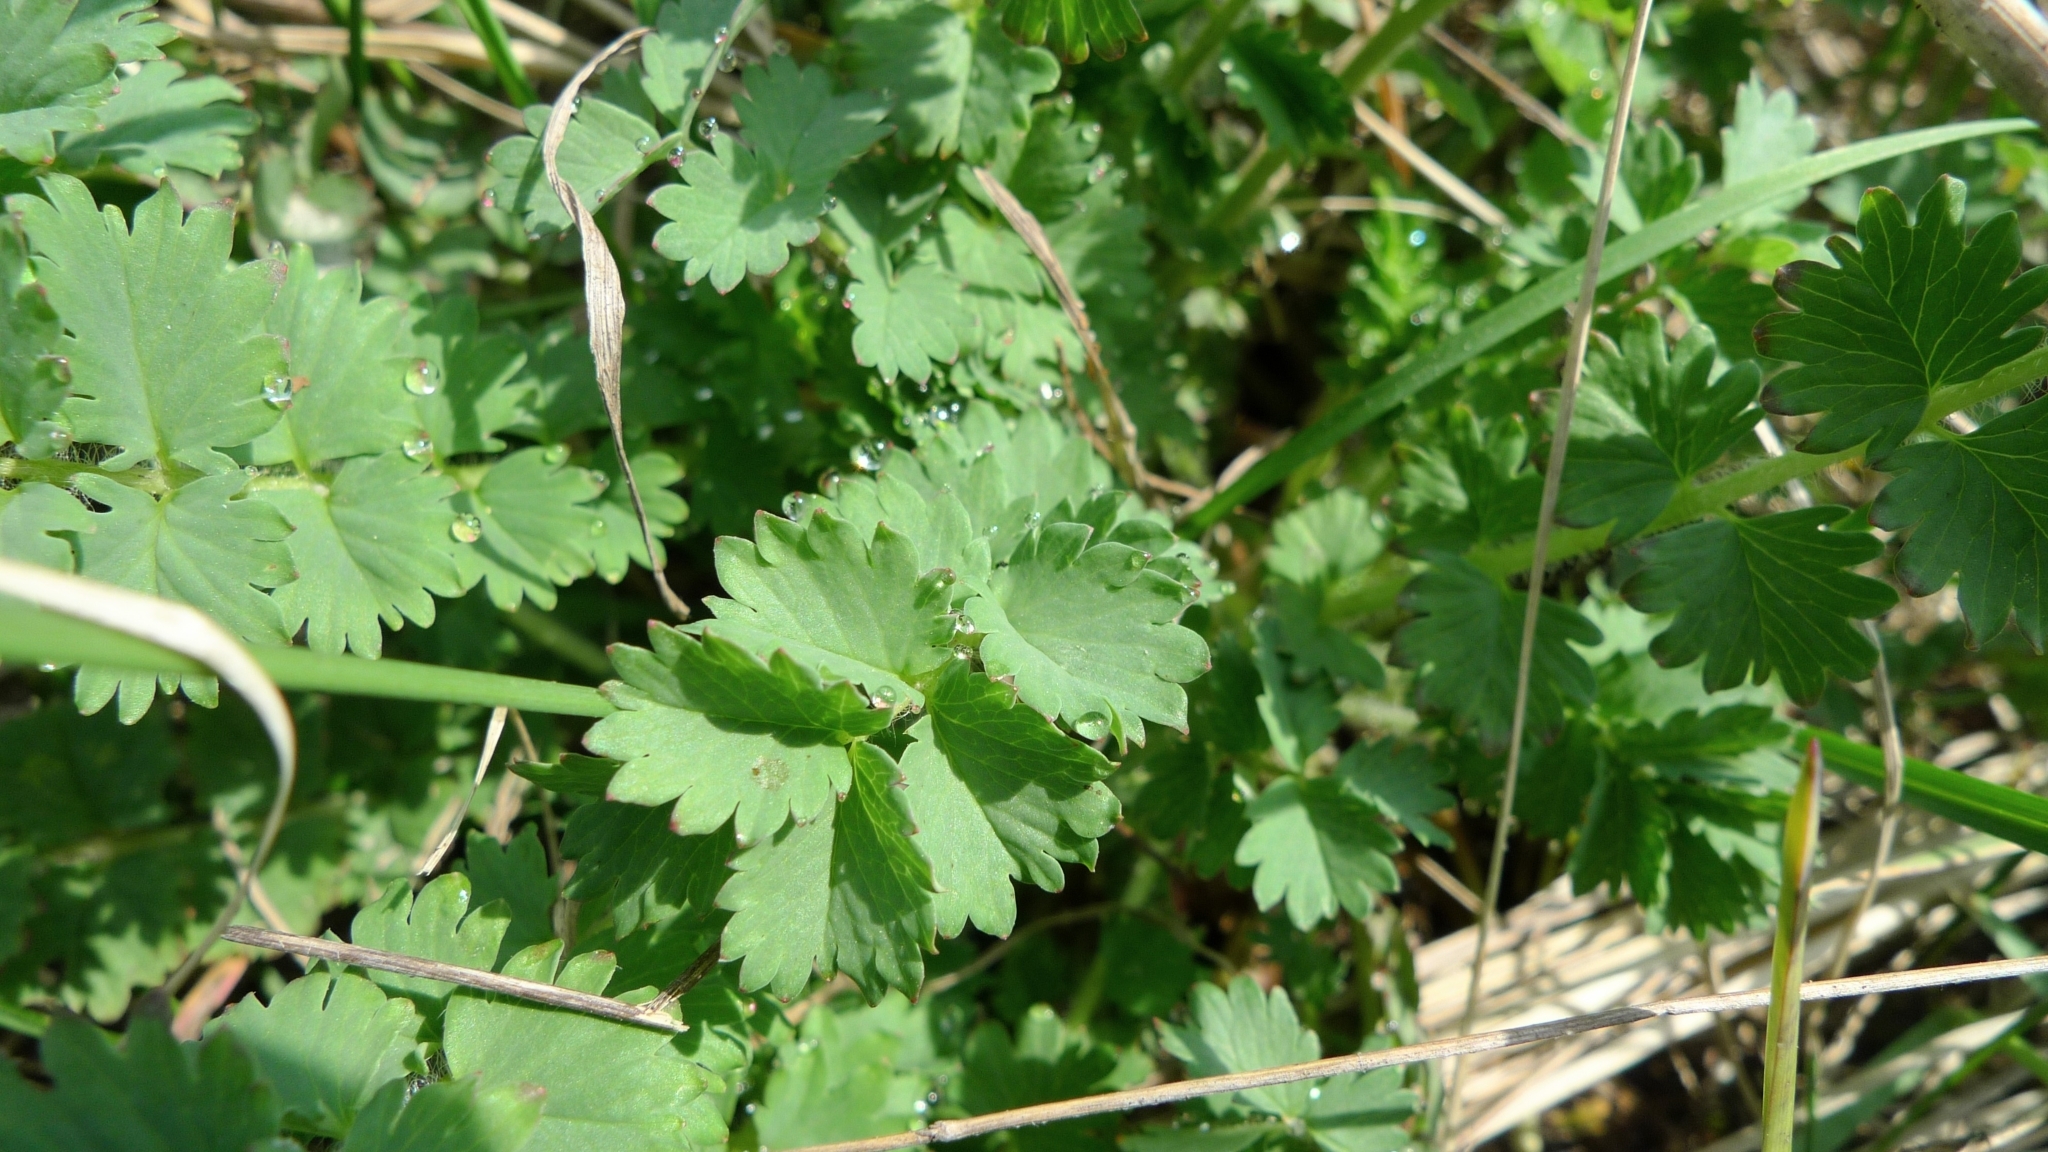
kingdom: Plantae
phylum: Tracheophyta
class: Magnoliopsida
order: Rosales
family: Rosaceae
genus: Poterium
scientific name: Poterium sanguisorba
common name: Salad burnet
